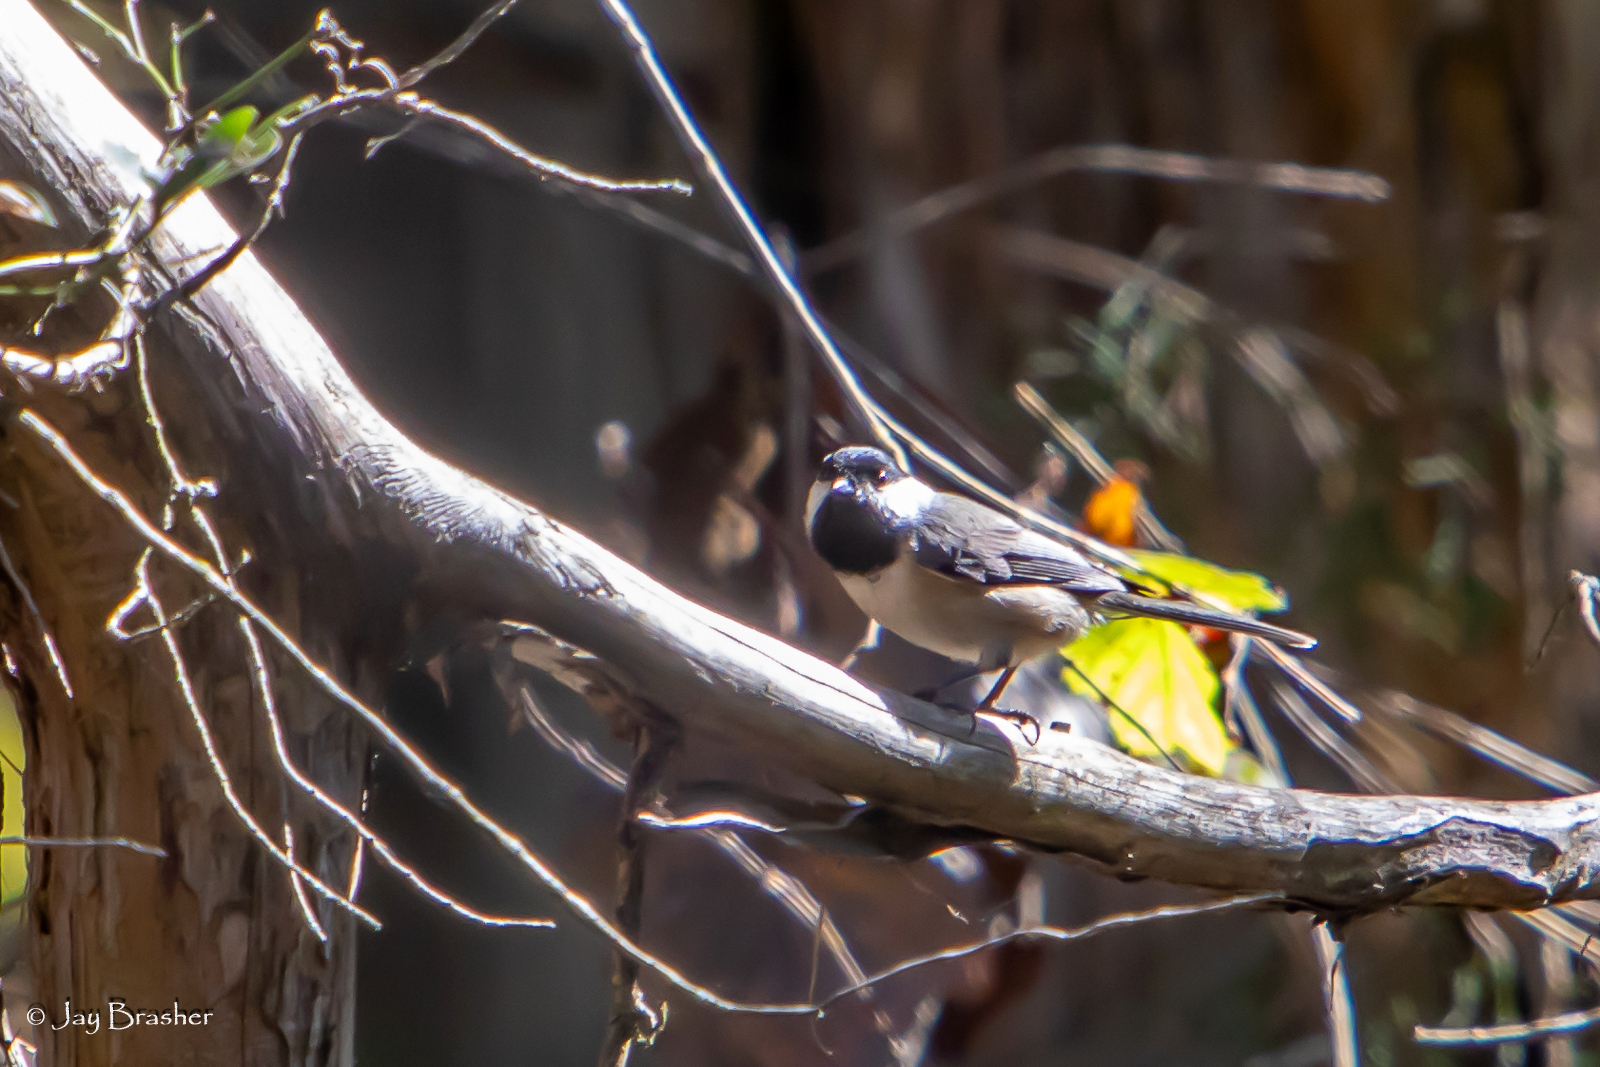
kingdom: Animalia
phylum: Chordata
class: Aves
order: Passeriformes
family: Paridae
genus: Poecile
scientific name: Poecile carolinensis
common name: Carolina chickadee
